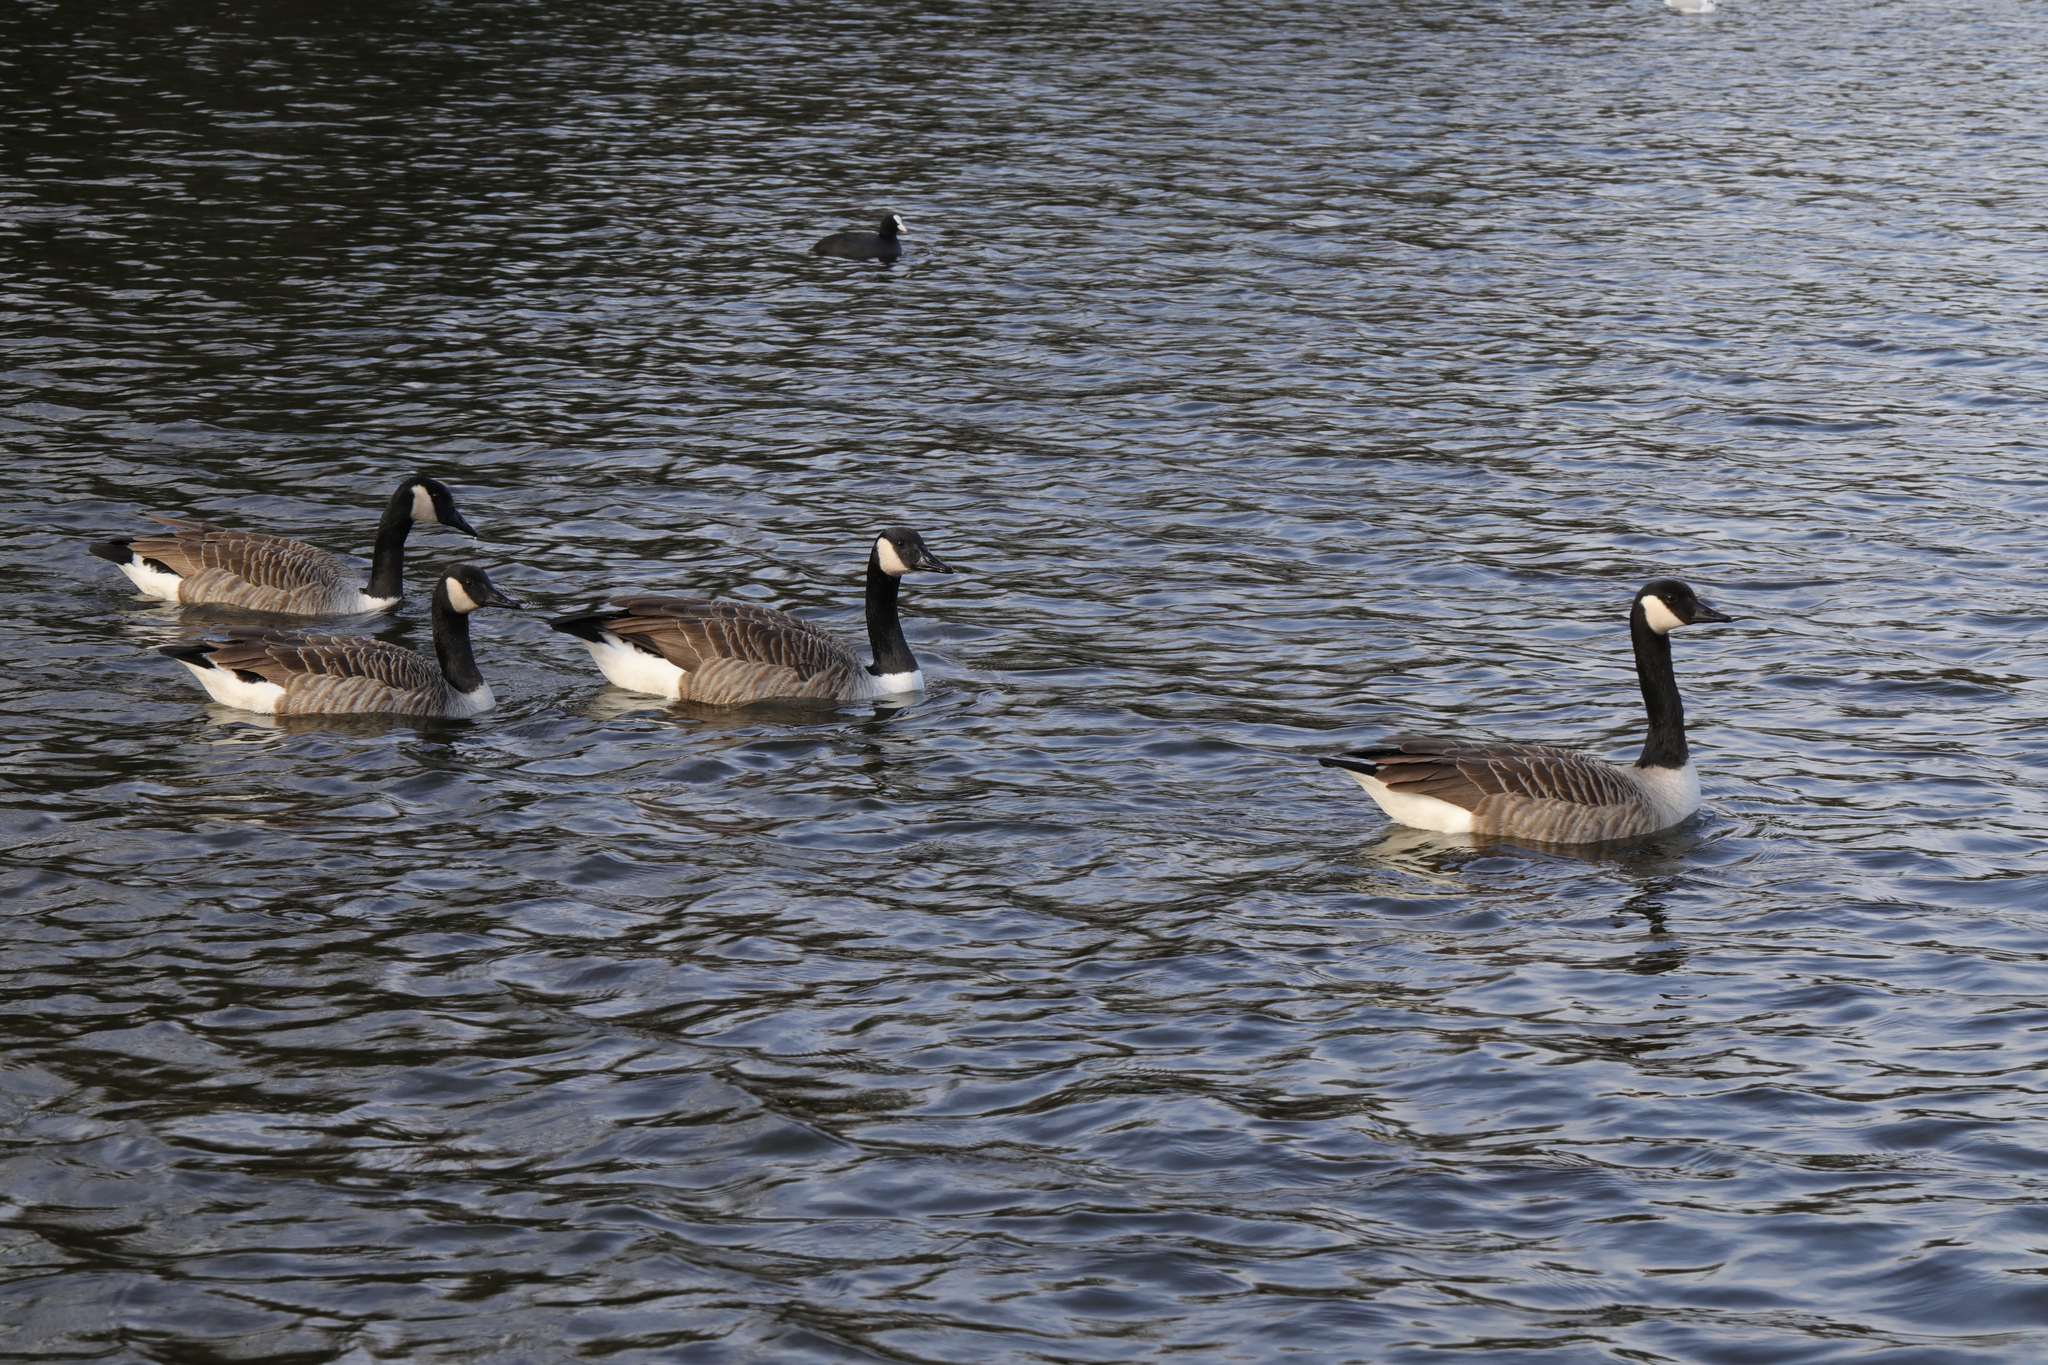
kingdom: Animalia
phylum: Chordata
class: Aves
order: Anseriformes
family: Anatidae
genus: Branta
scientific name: Branta canadensis
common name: Canada goose
